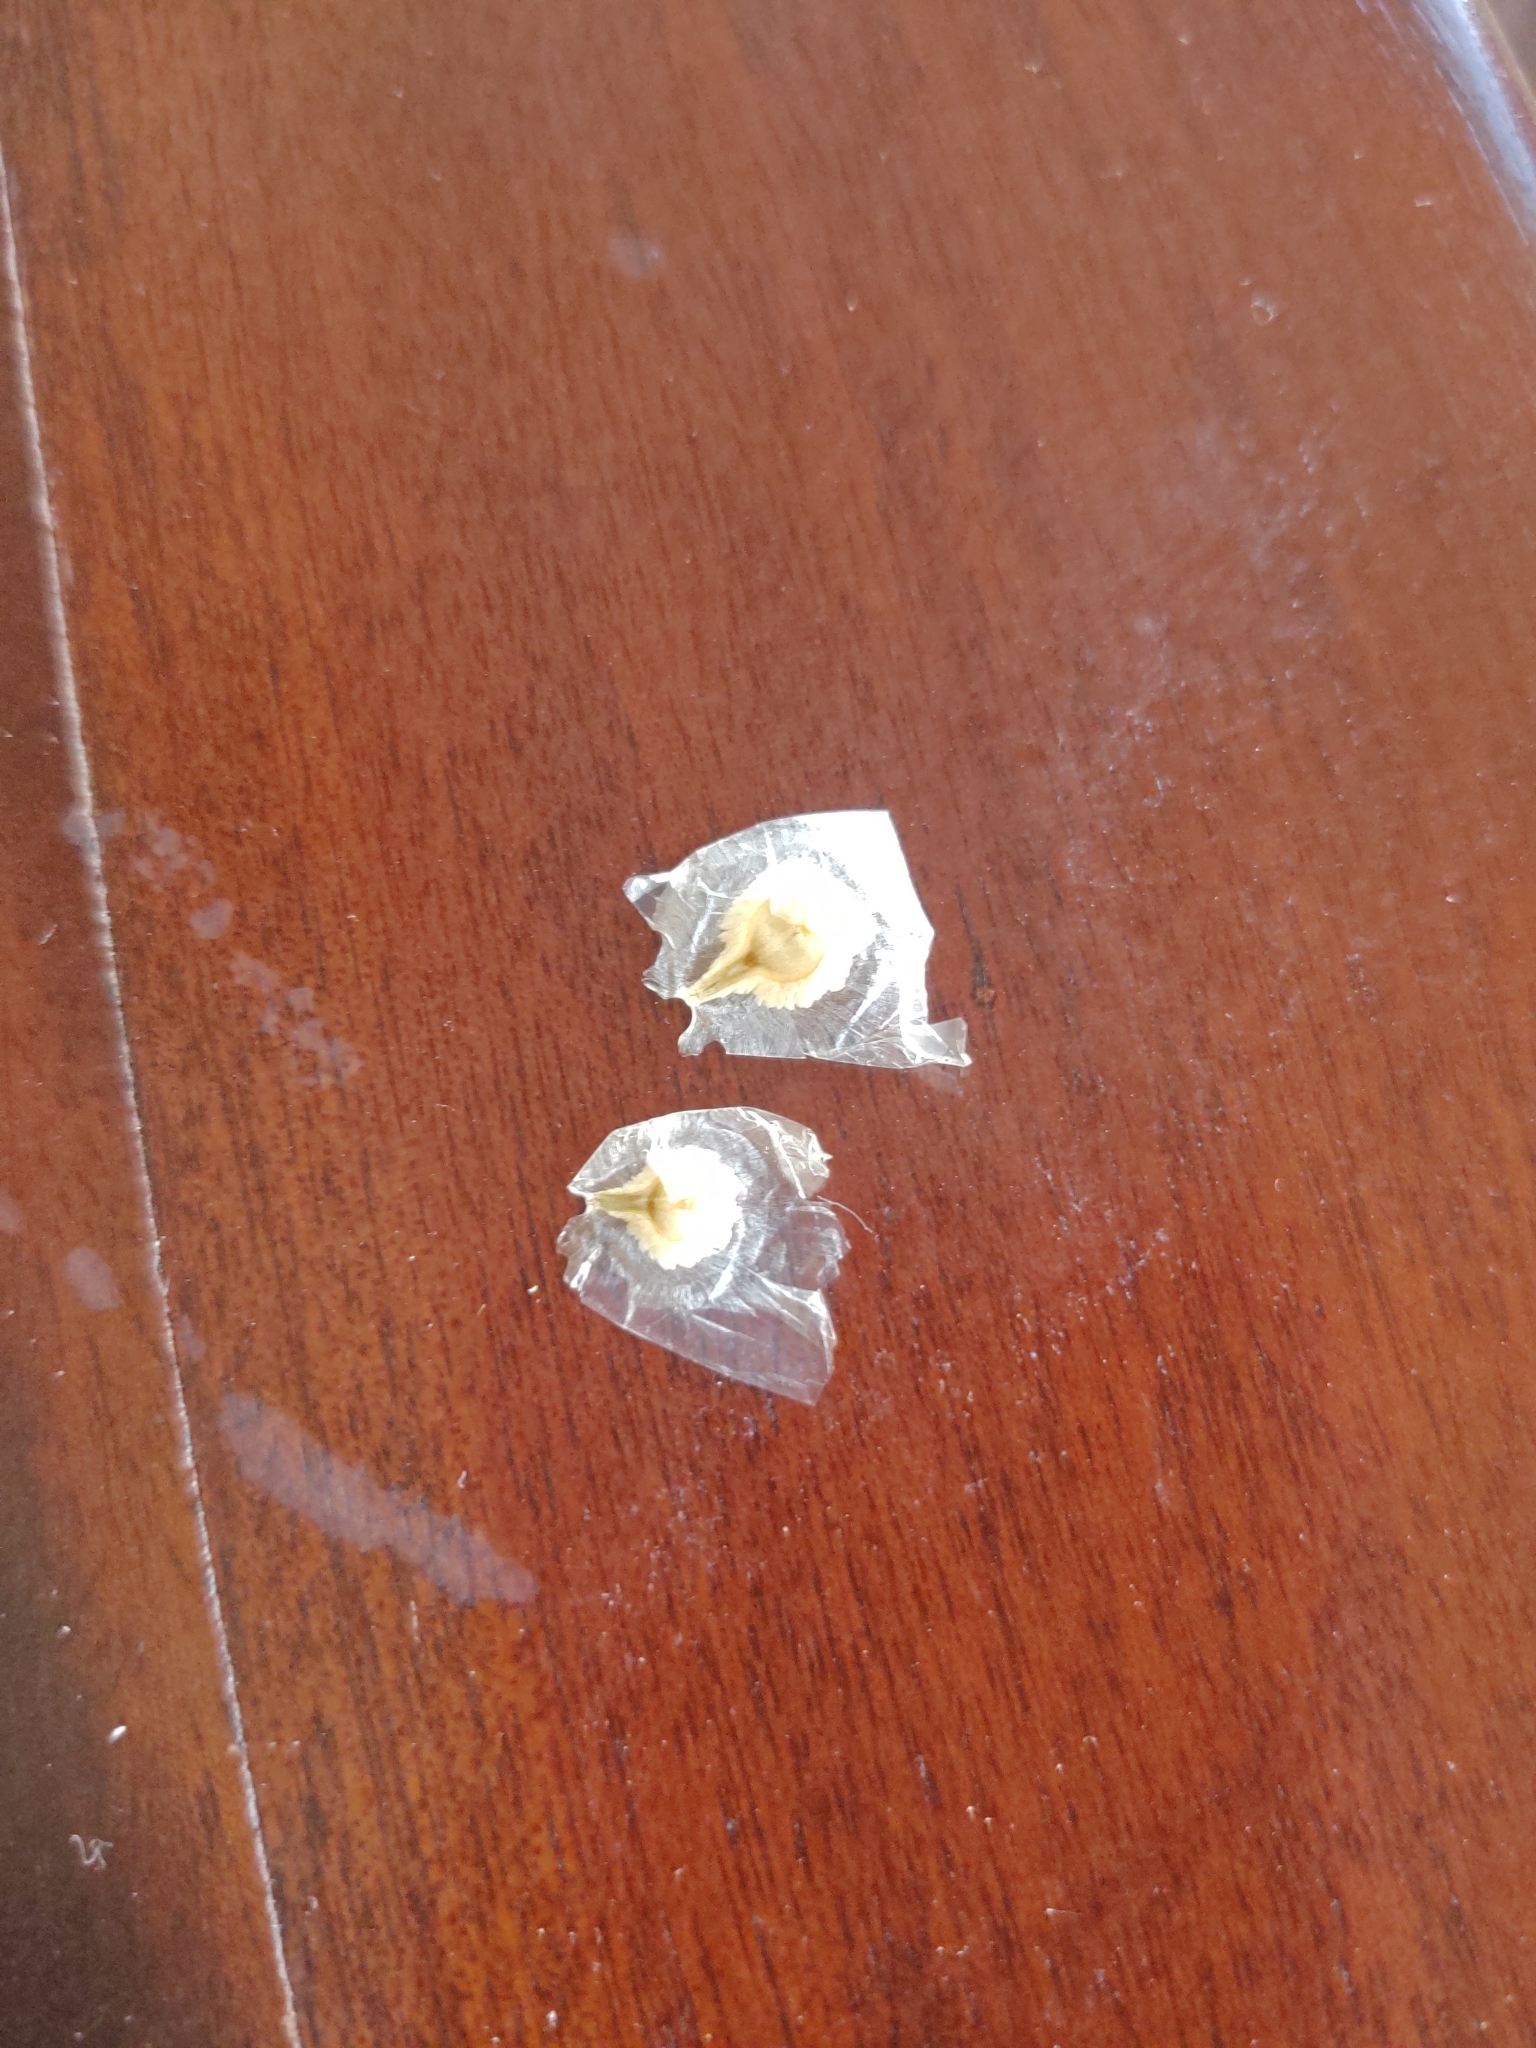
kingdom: Plantae
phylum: Tracheophyta
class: Magnoliopsida
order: Lamiales
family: Bignoniaceae
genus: Spathodea
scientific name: Spathodea campanulata
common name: African tuliptree
